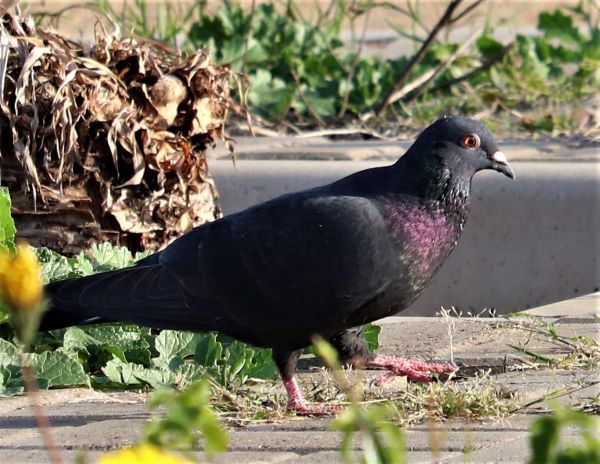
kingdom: Animalia
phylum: Chordata
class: Aves
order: Columbiformes
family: Columbidae
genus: Columba
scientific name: Columba livia
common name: Rock pigeon
